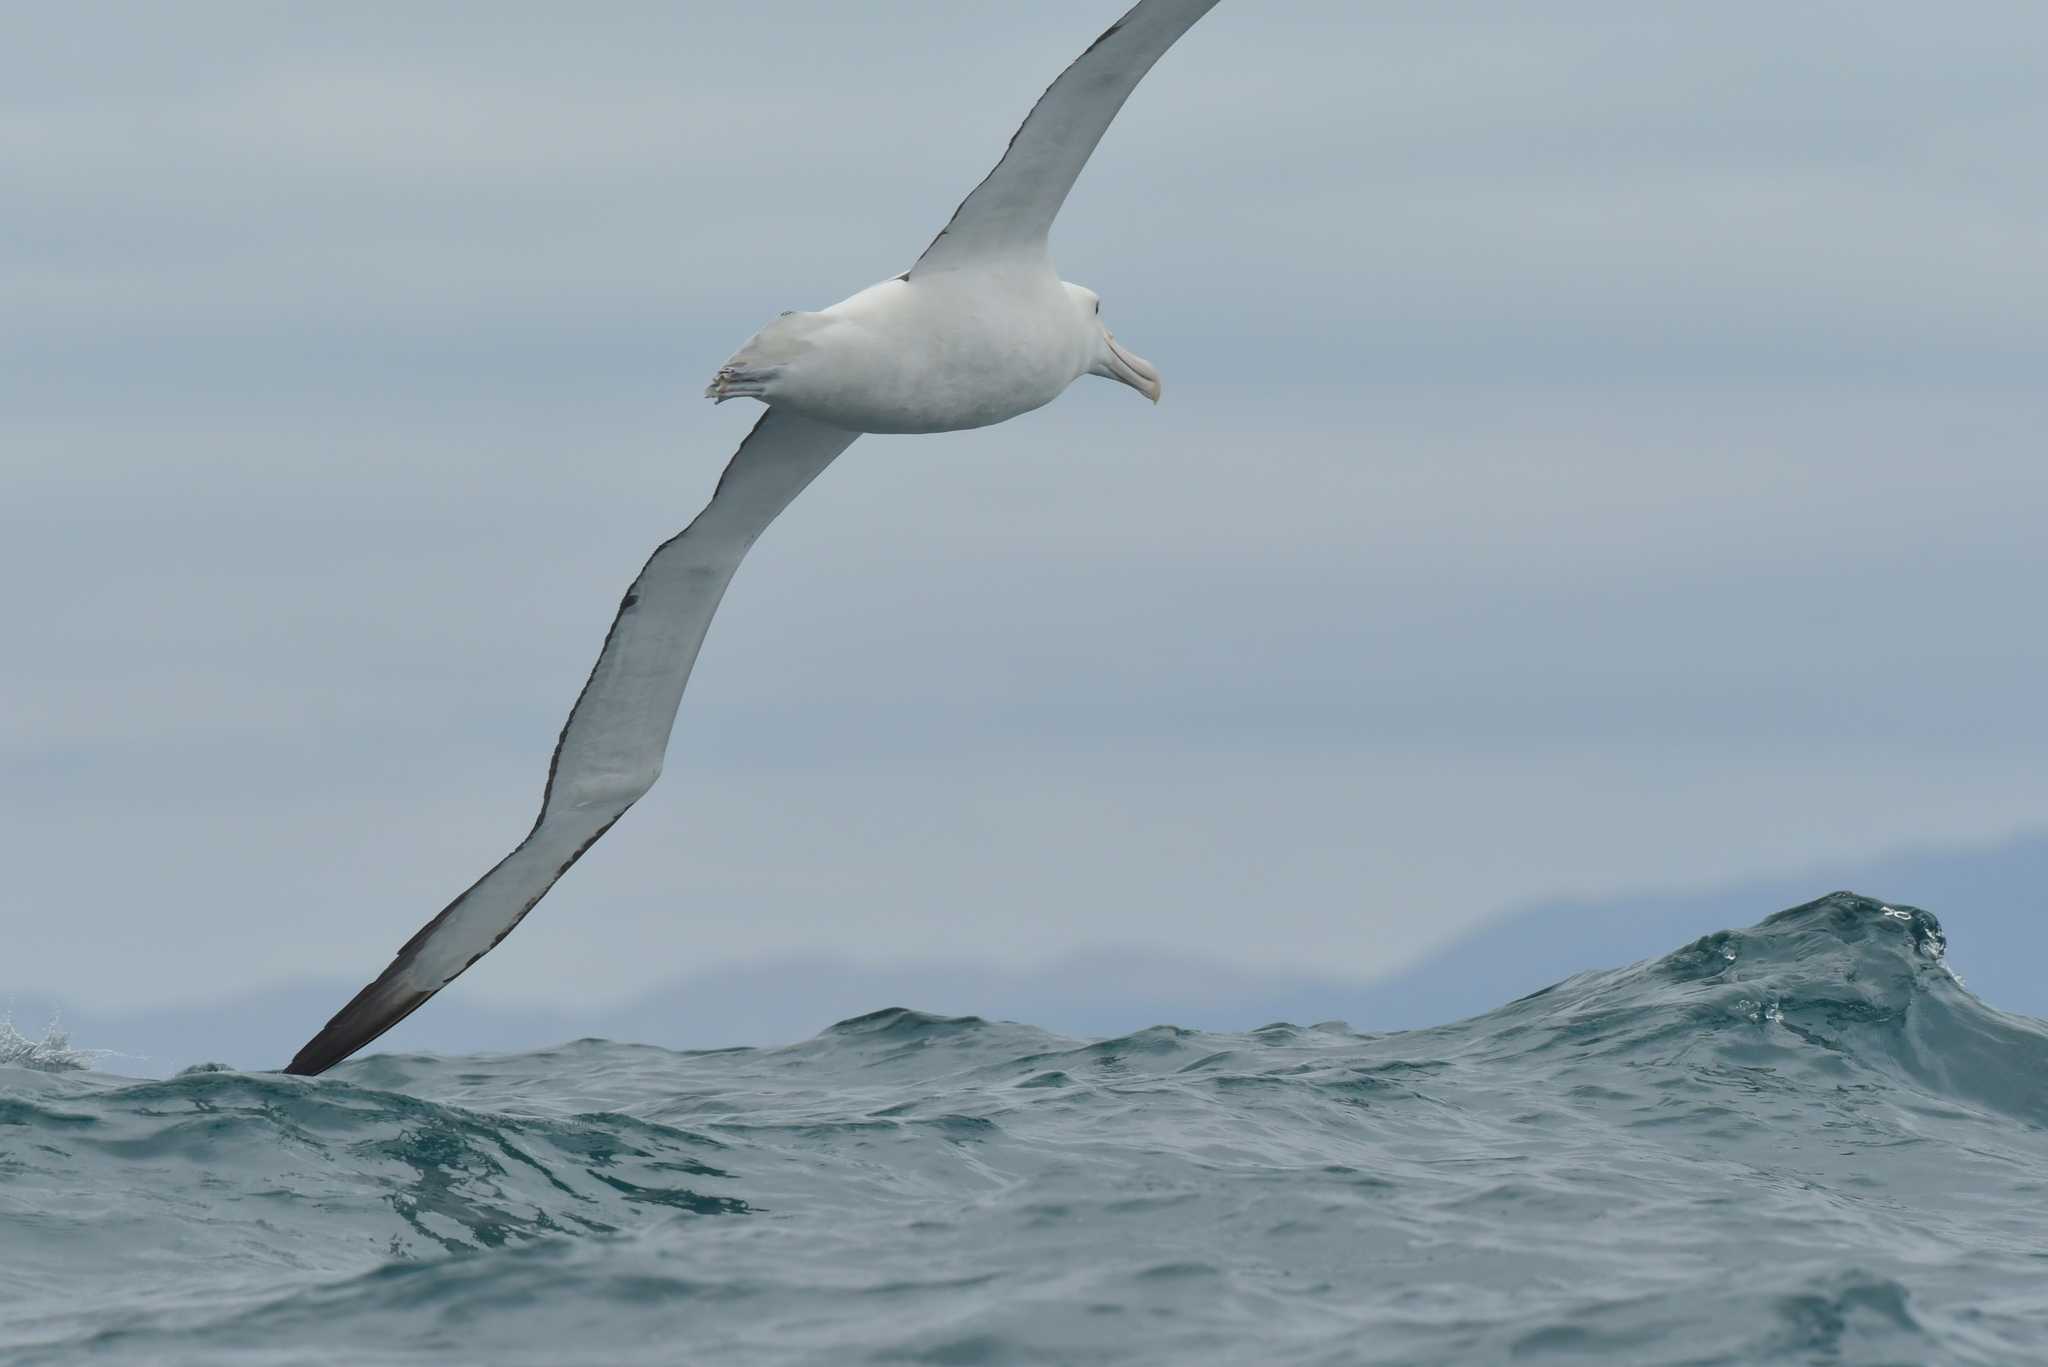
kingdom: Animalia
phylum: Chordata
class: Aves
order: Procellariiformes
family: Diomedeidae
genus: Diomedea
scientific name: Diomedea sanfordi
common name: Northern royal albatross
